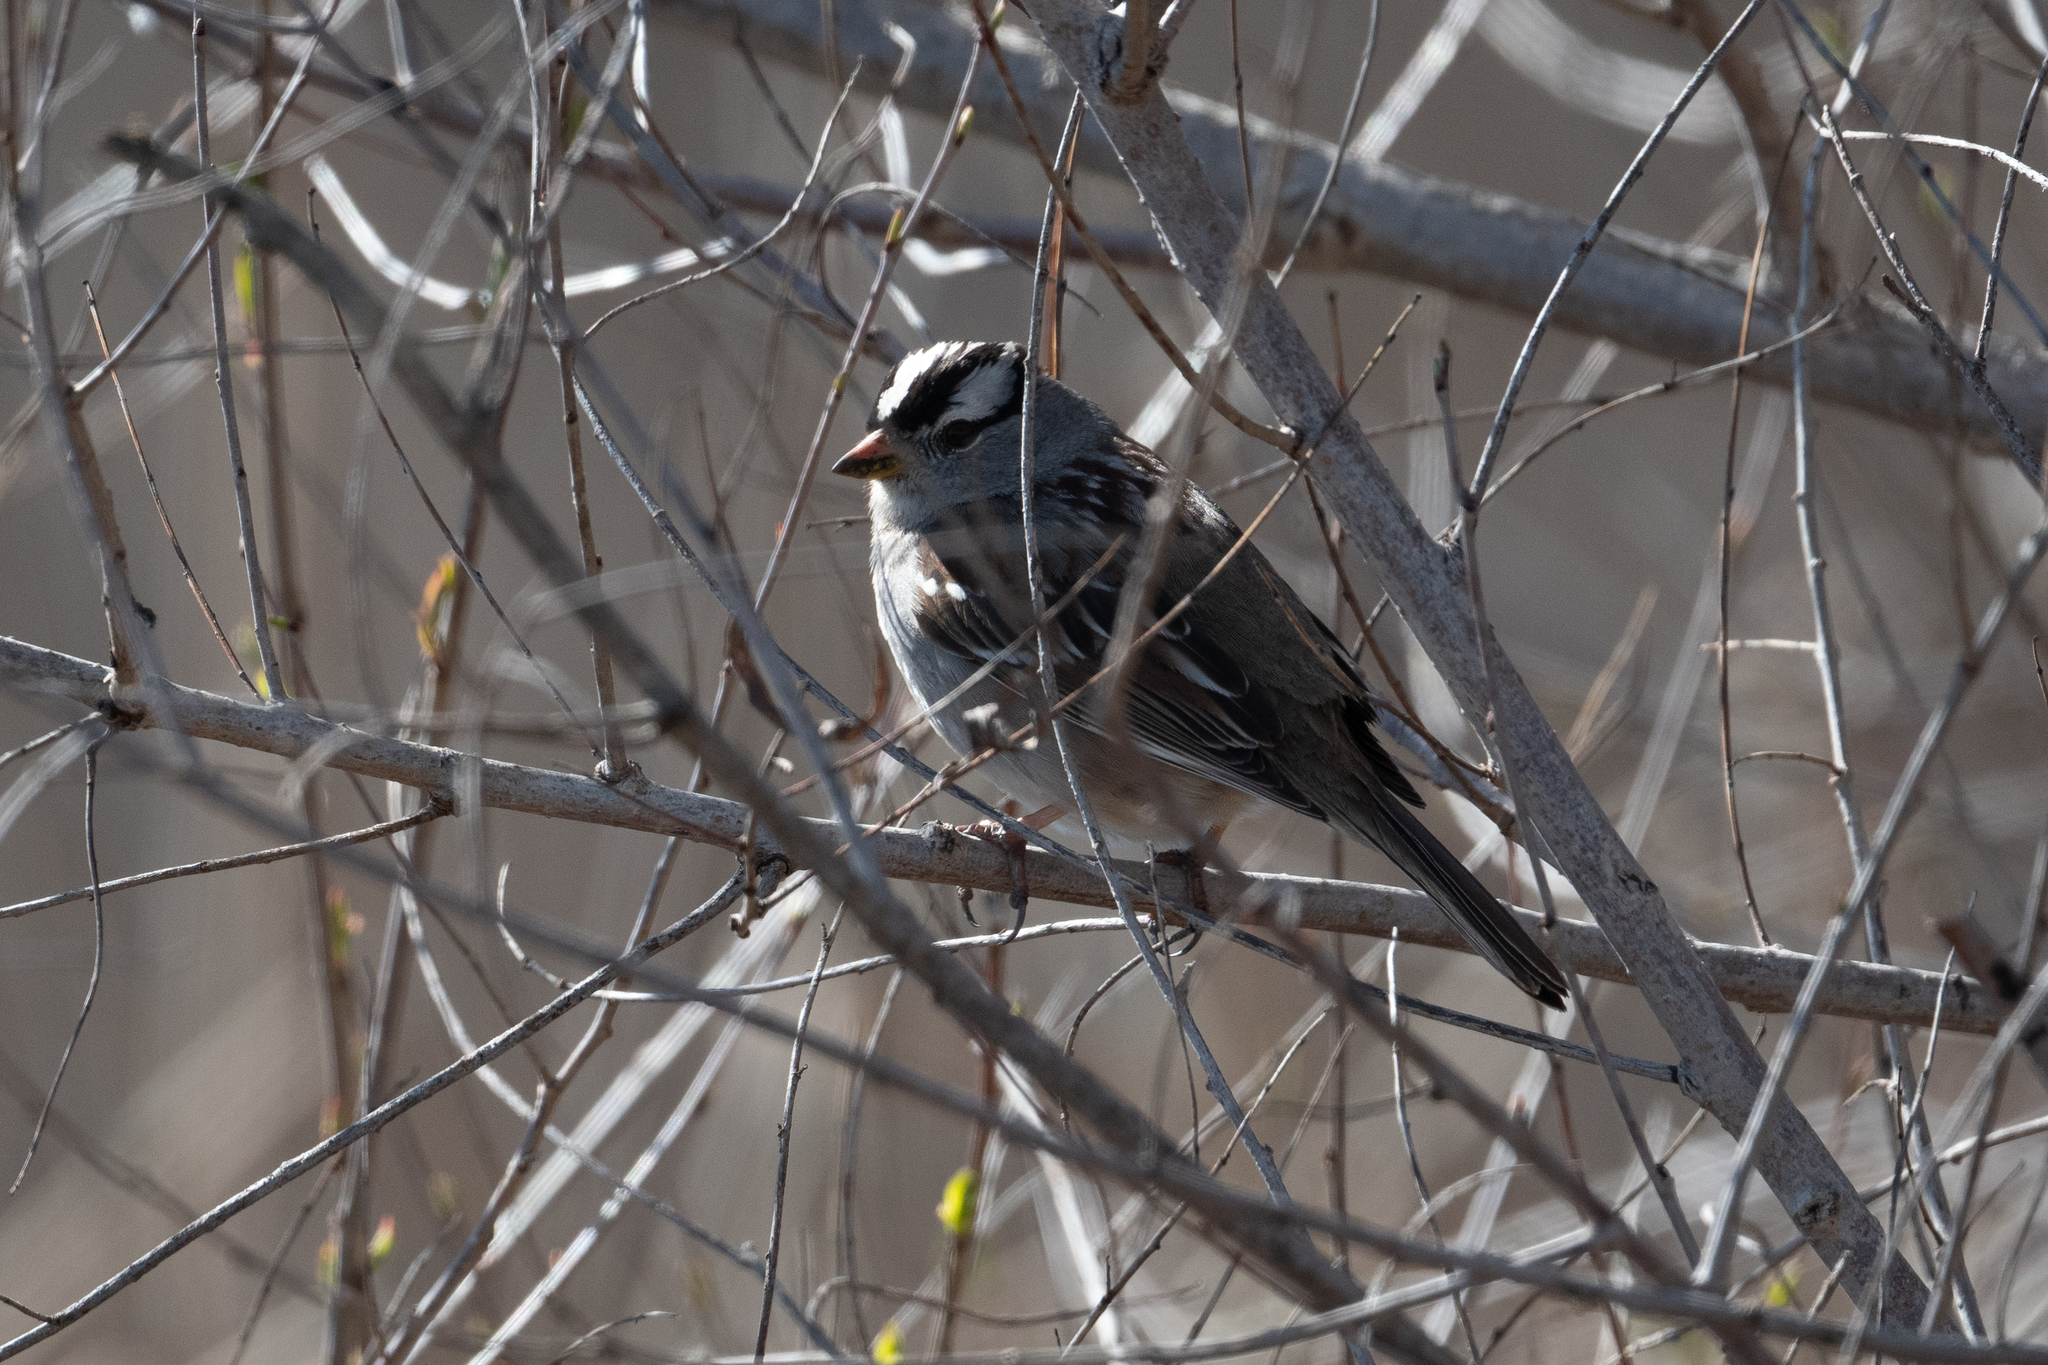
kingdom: Animalia
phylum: Chordata
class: Aves
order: Passeriformes
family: Passerellidae
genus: Zonotrichia
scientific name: Zonotrichia leucophrys
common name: White-crowned sparrow
